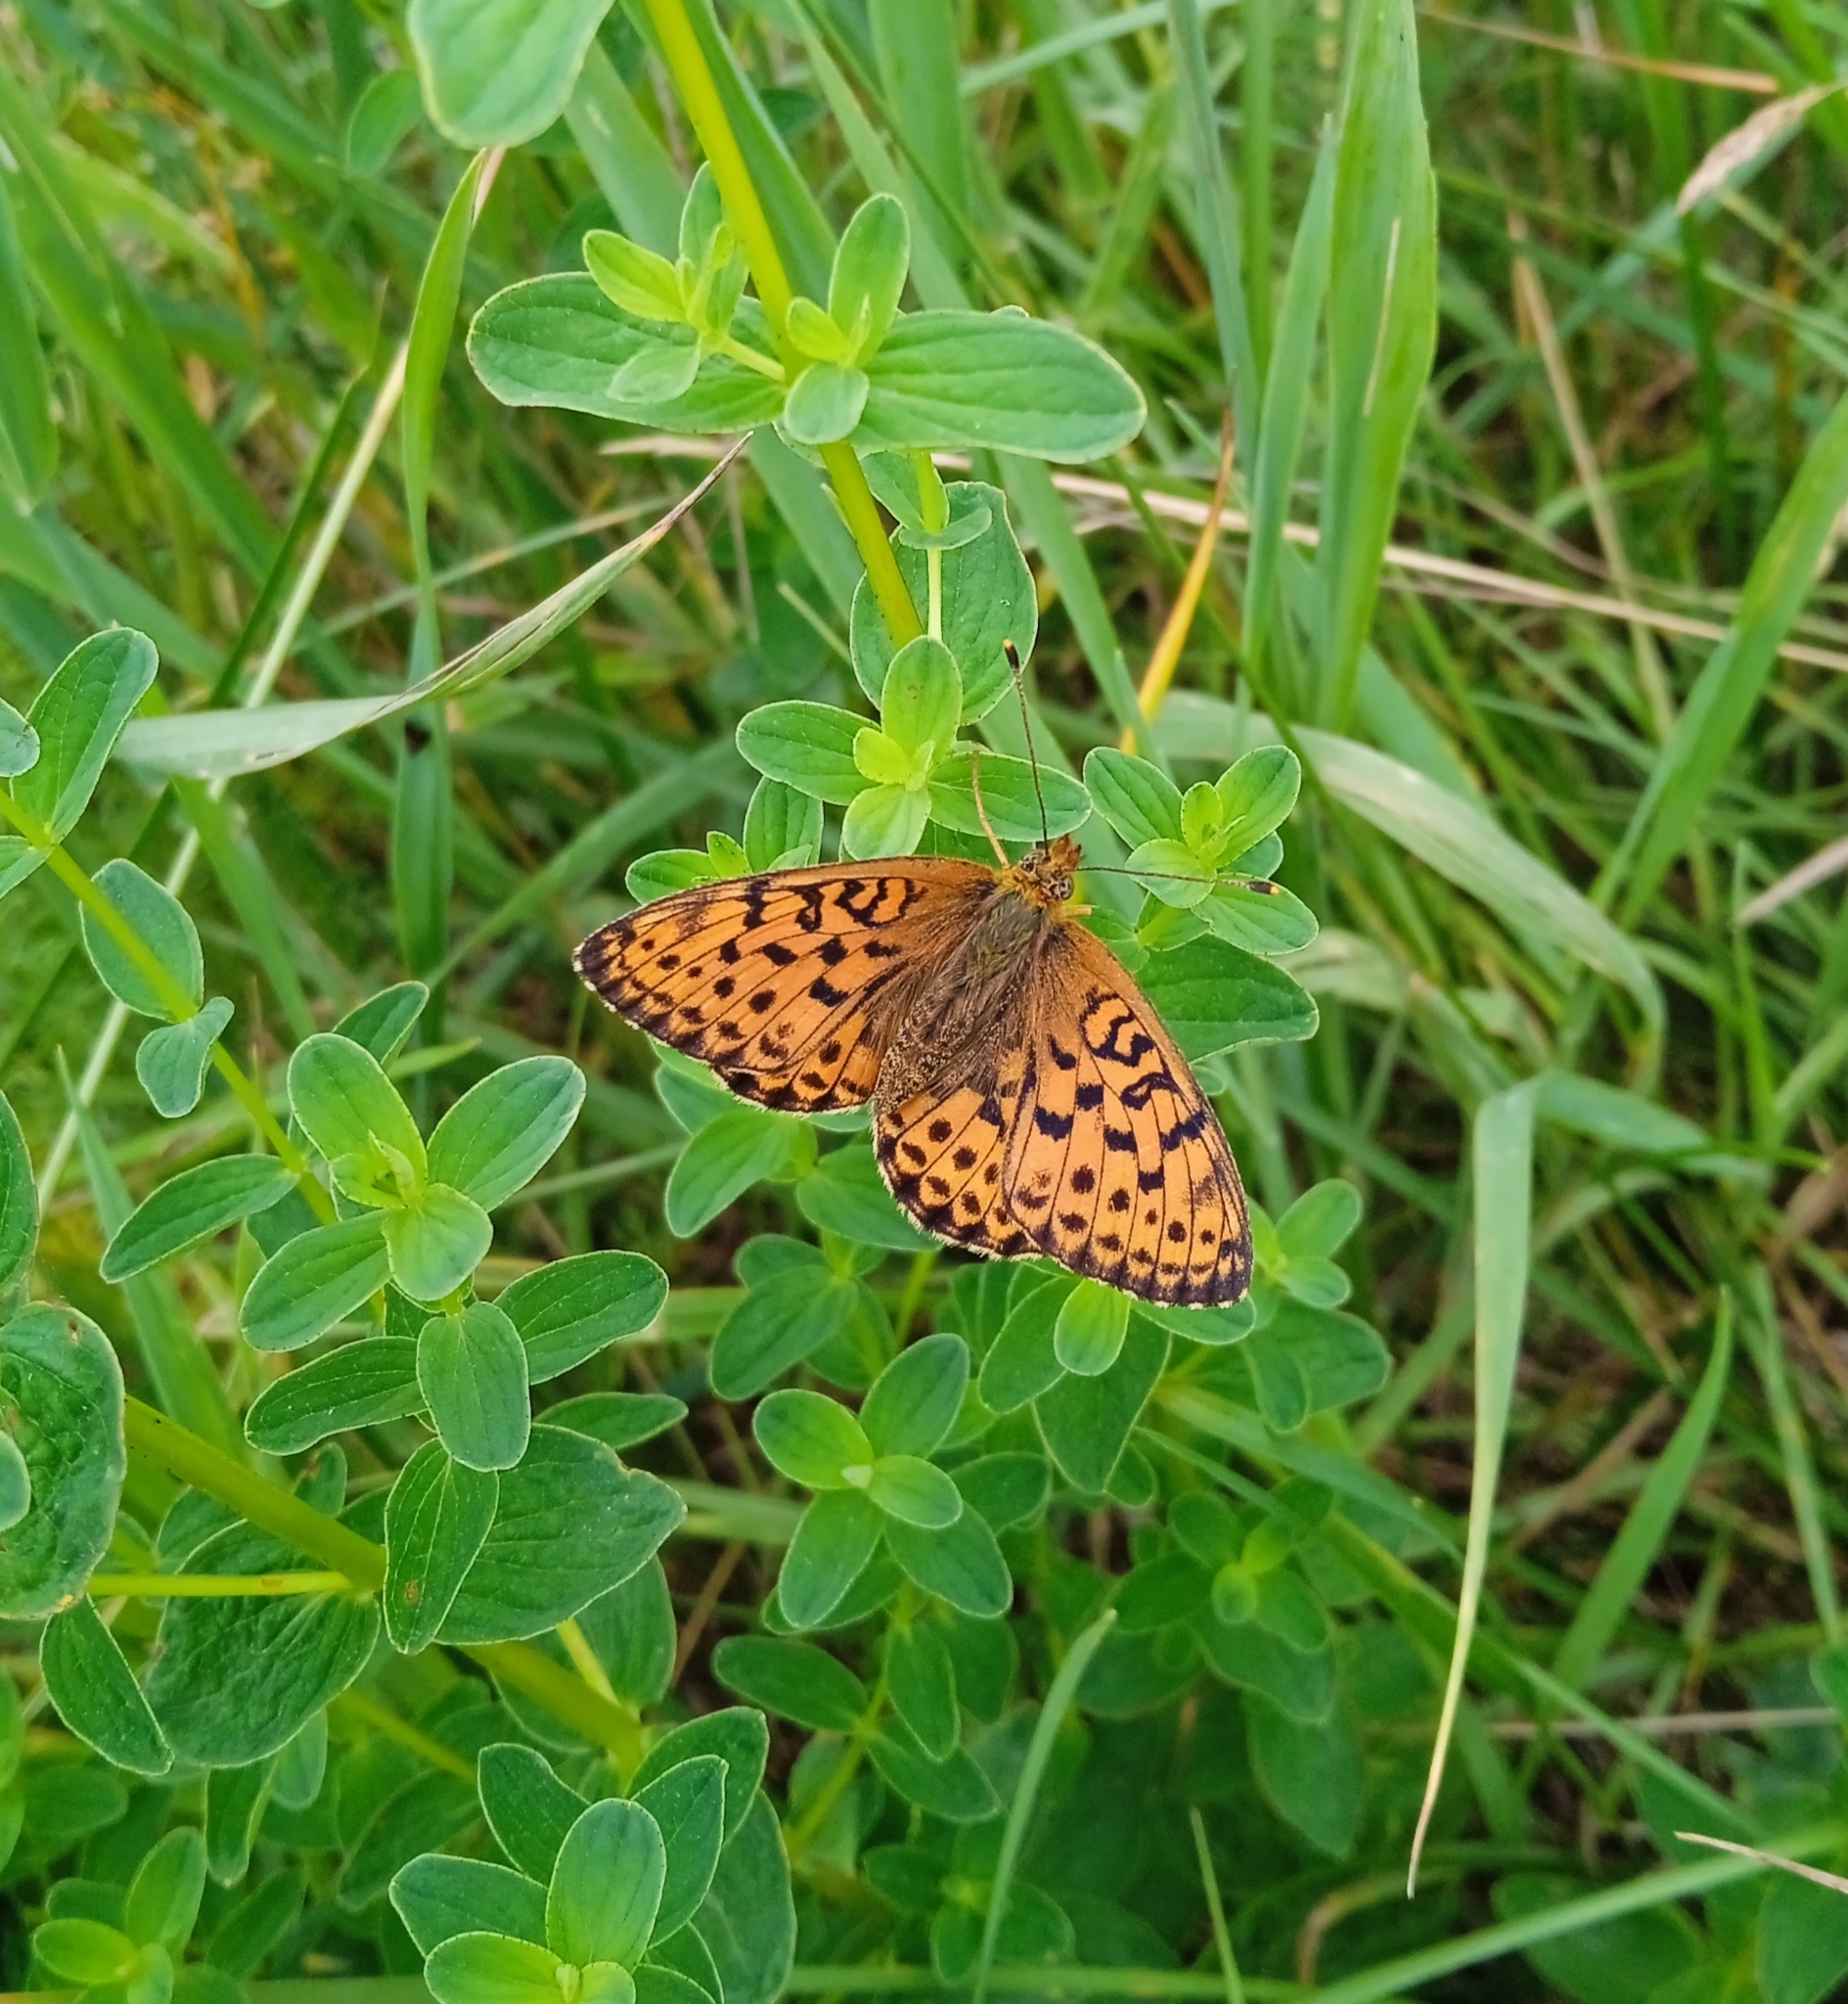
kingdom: Animalia
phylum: Arthropoda
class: Insecta
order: Lepidoptera
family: Nymphalidae
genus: Brenthis
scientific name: Brenthis ino
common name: Lesser marbled fritillary
